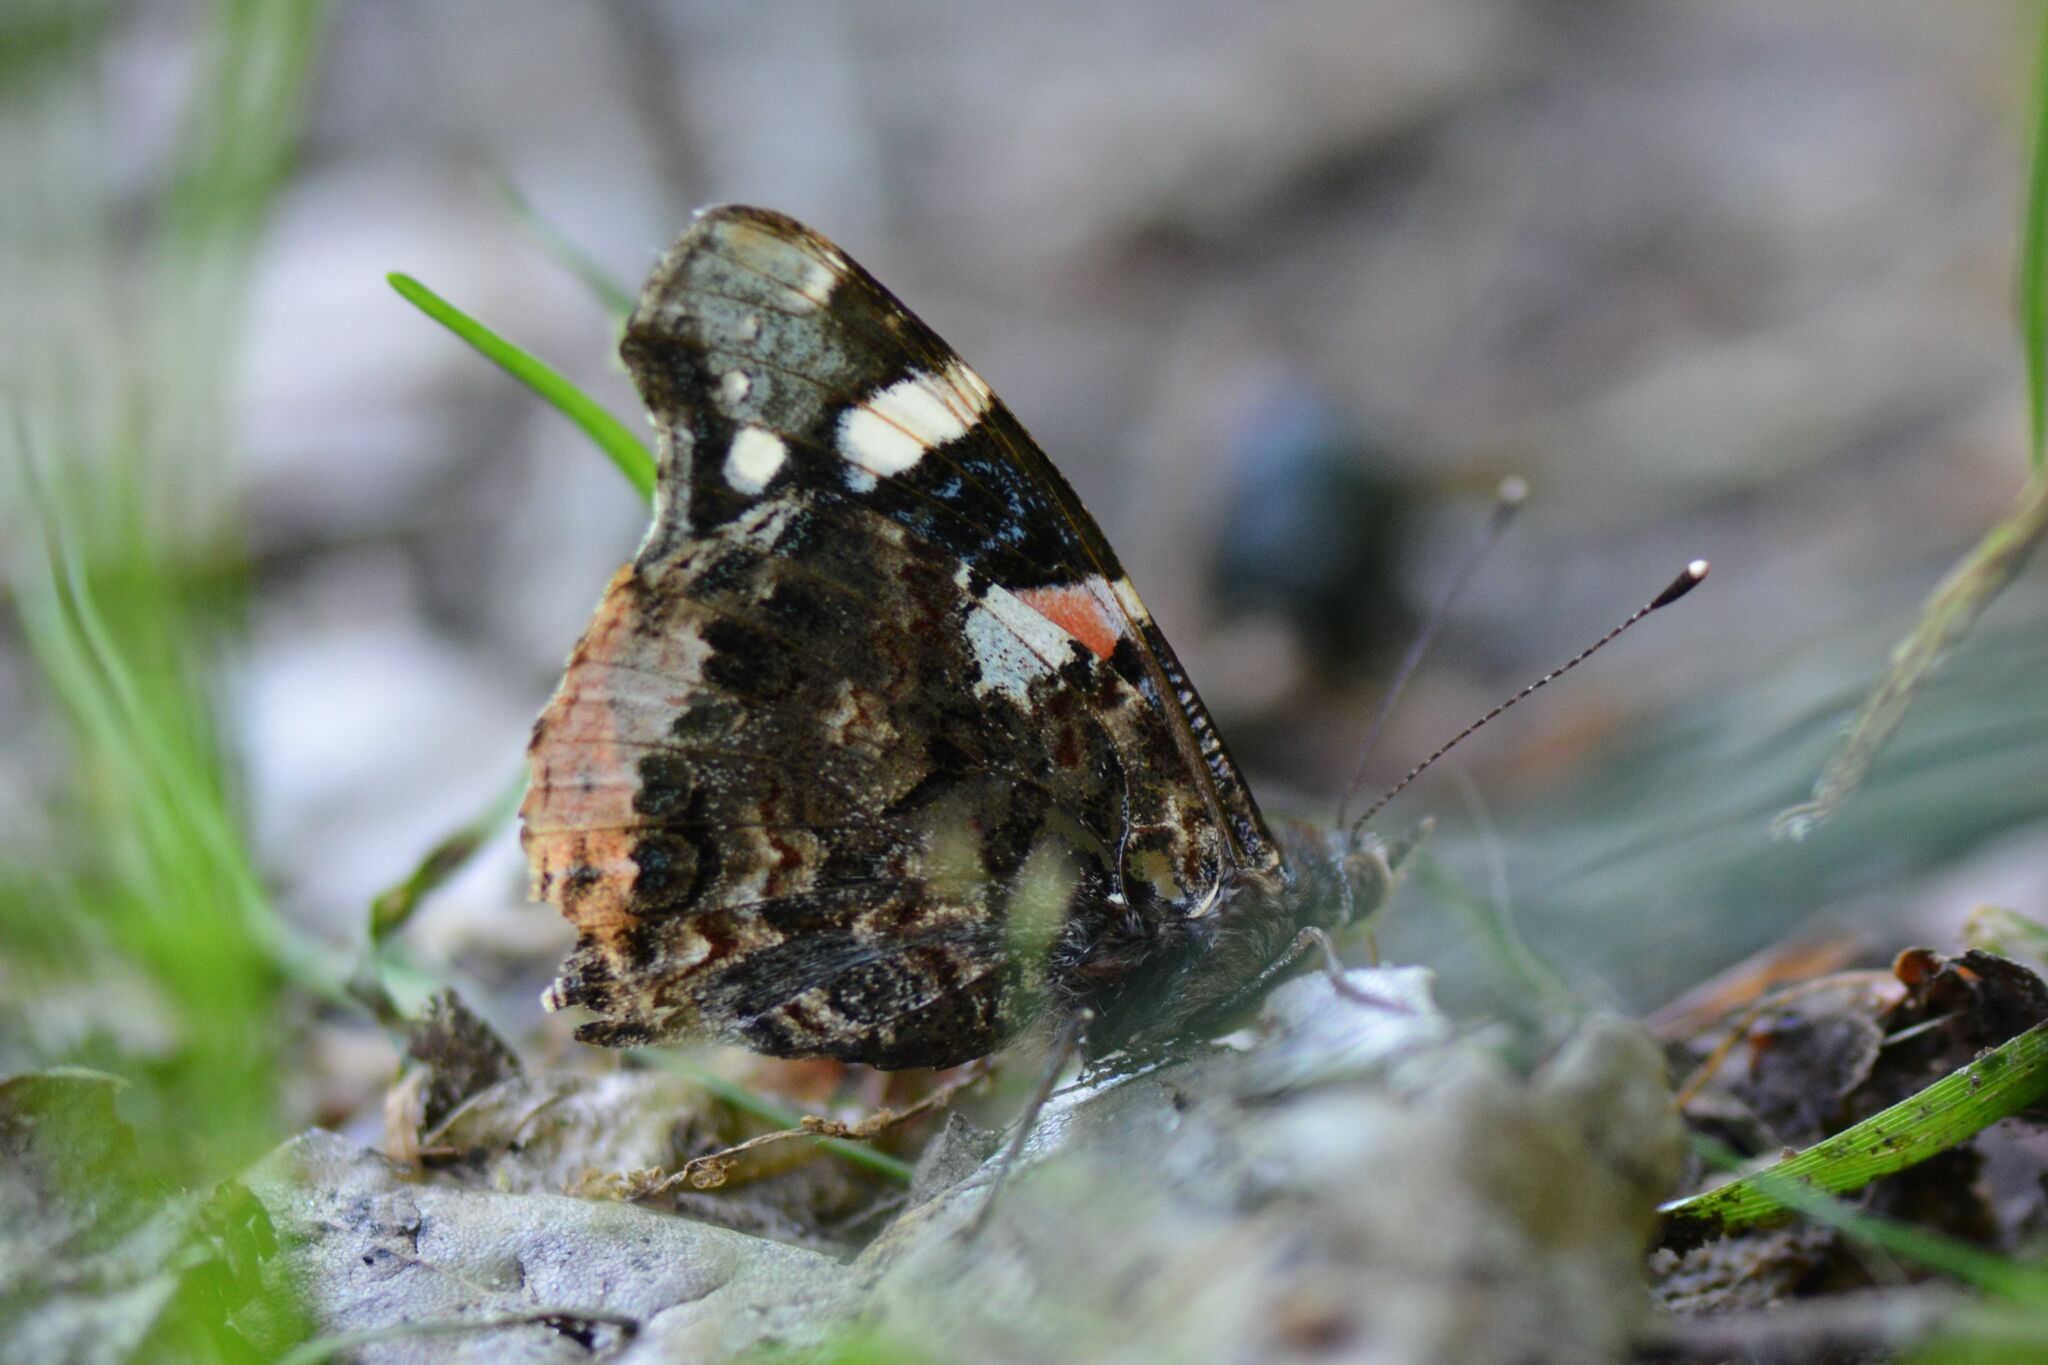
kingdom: Animalia
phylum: Arthropoda
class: Insecta
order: Lepidoptera
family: Nymphalidae
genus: Vanessa
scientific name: Vanessa atalanta
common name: Red admiral
